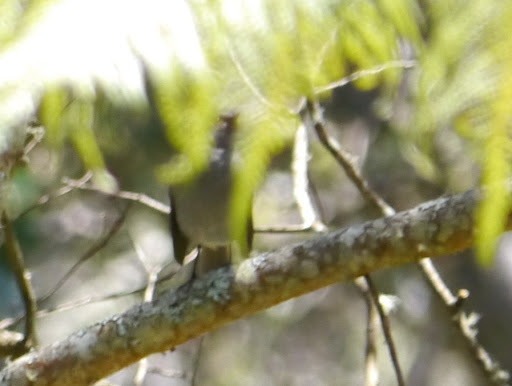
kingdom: Animalia
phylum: Chordata
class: Aves
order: Passeriformes
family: Turdidae
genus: Myadestes
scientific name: Myadestes obscurus
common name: Omao
